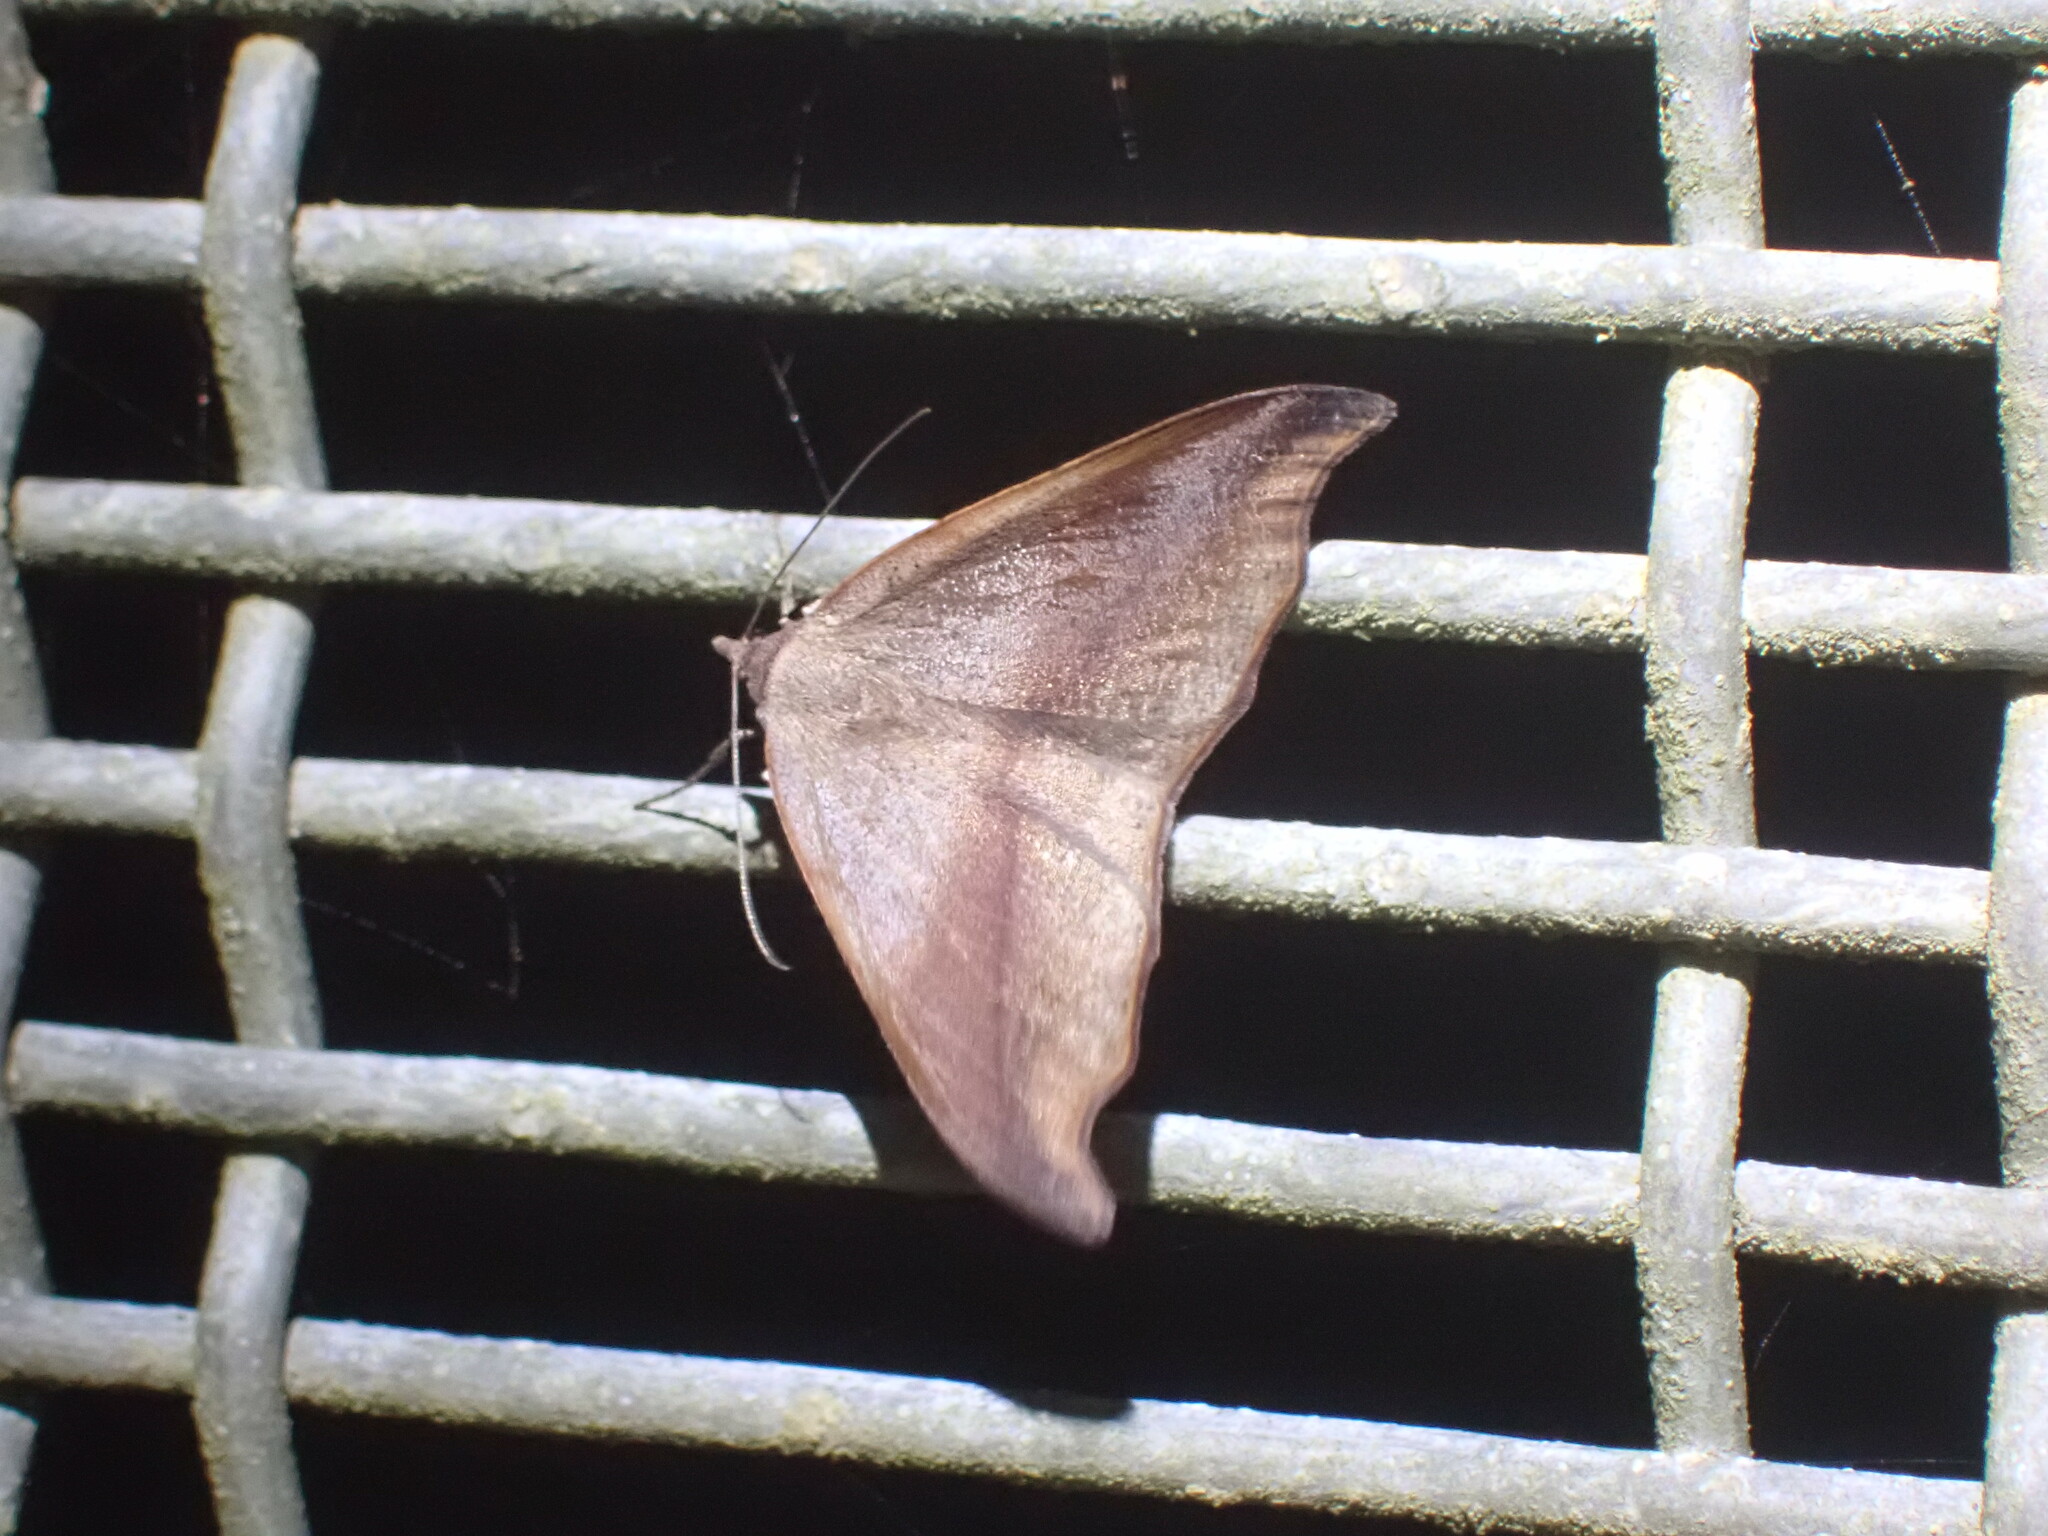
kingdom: Animalia
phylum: Arthropoda
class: Insecta
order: Lepidoptera
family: Geometridae
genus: Sarisa
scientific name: Sarisa muriferata
